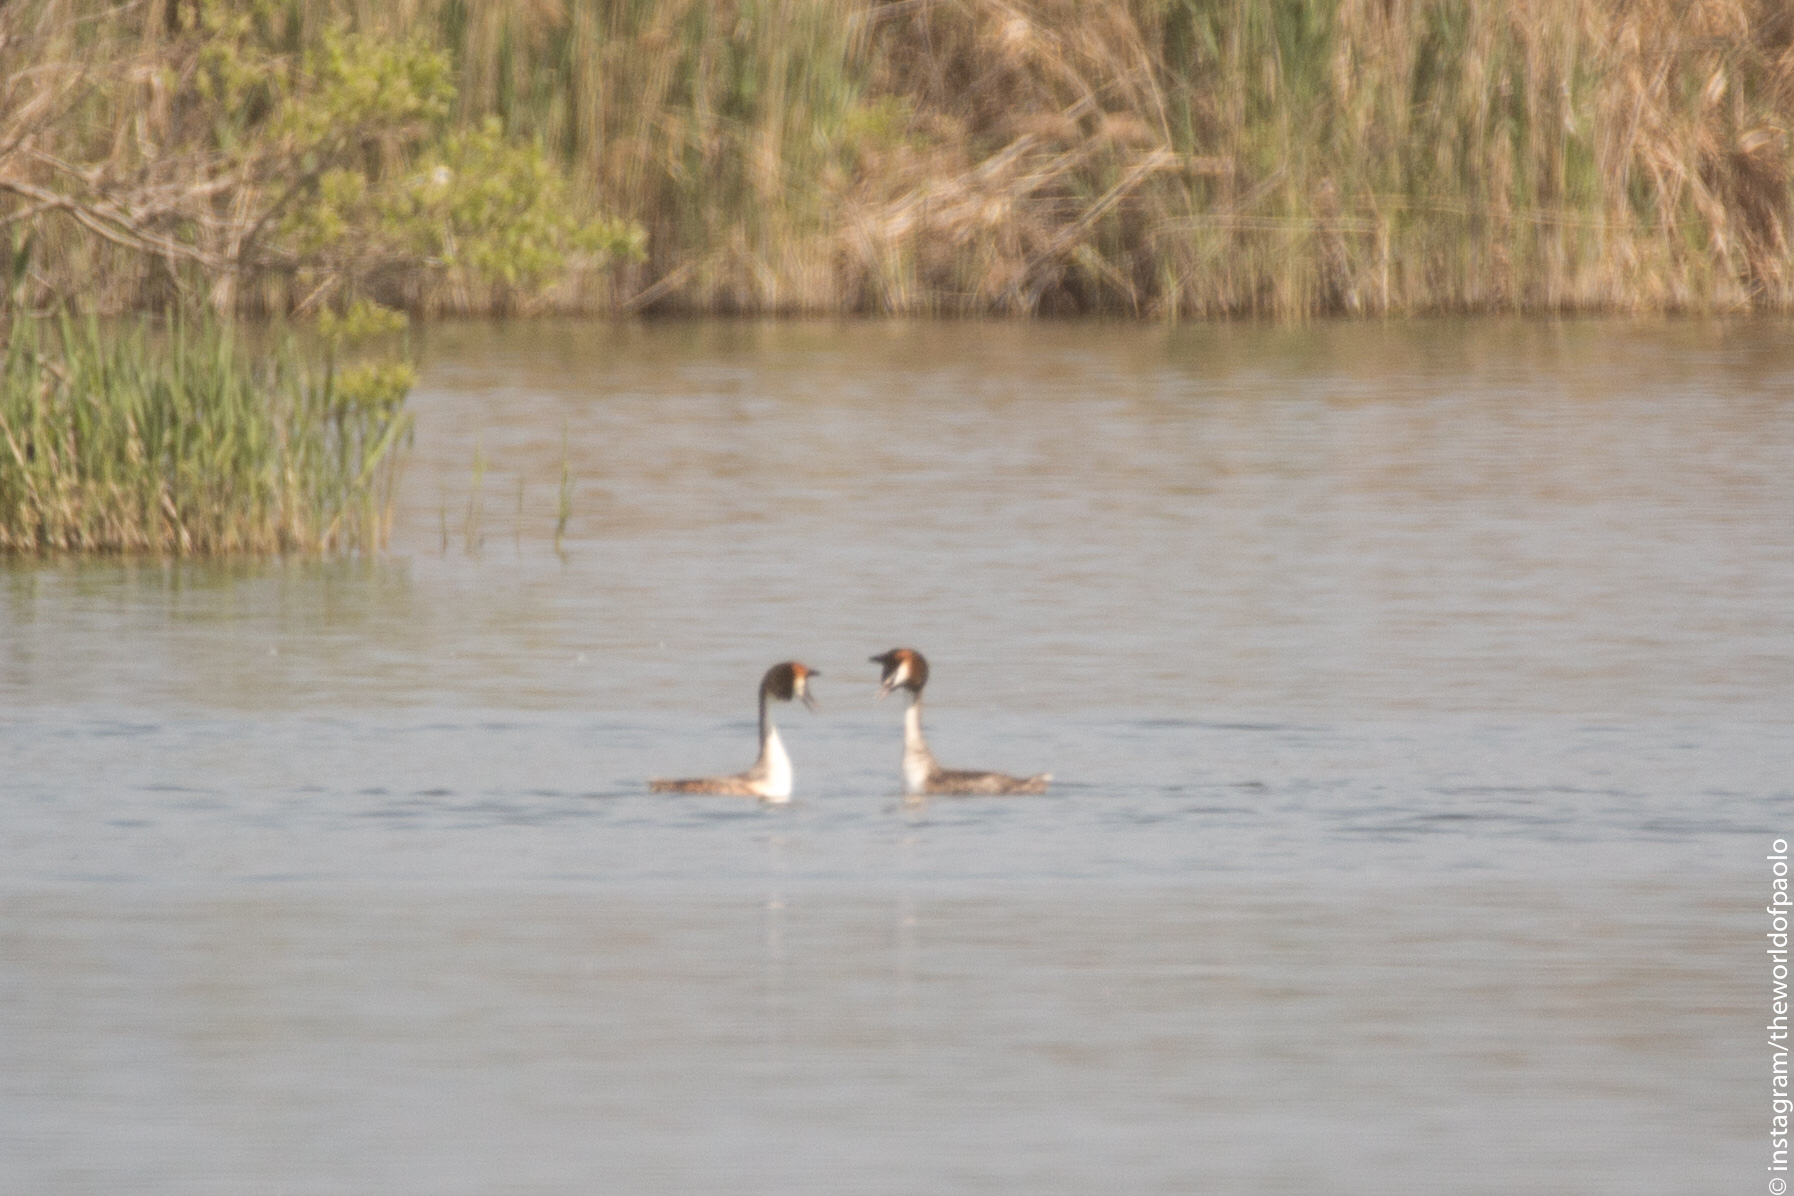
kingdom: Animalia
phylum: Chordata
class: Aves
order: Podicipediformes
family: Podicipedidae
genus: Podiceps
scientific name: Podiceps cristatus
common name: Great crested grebe
